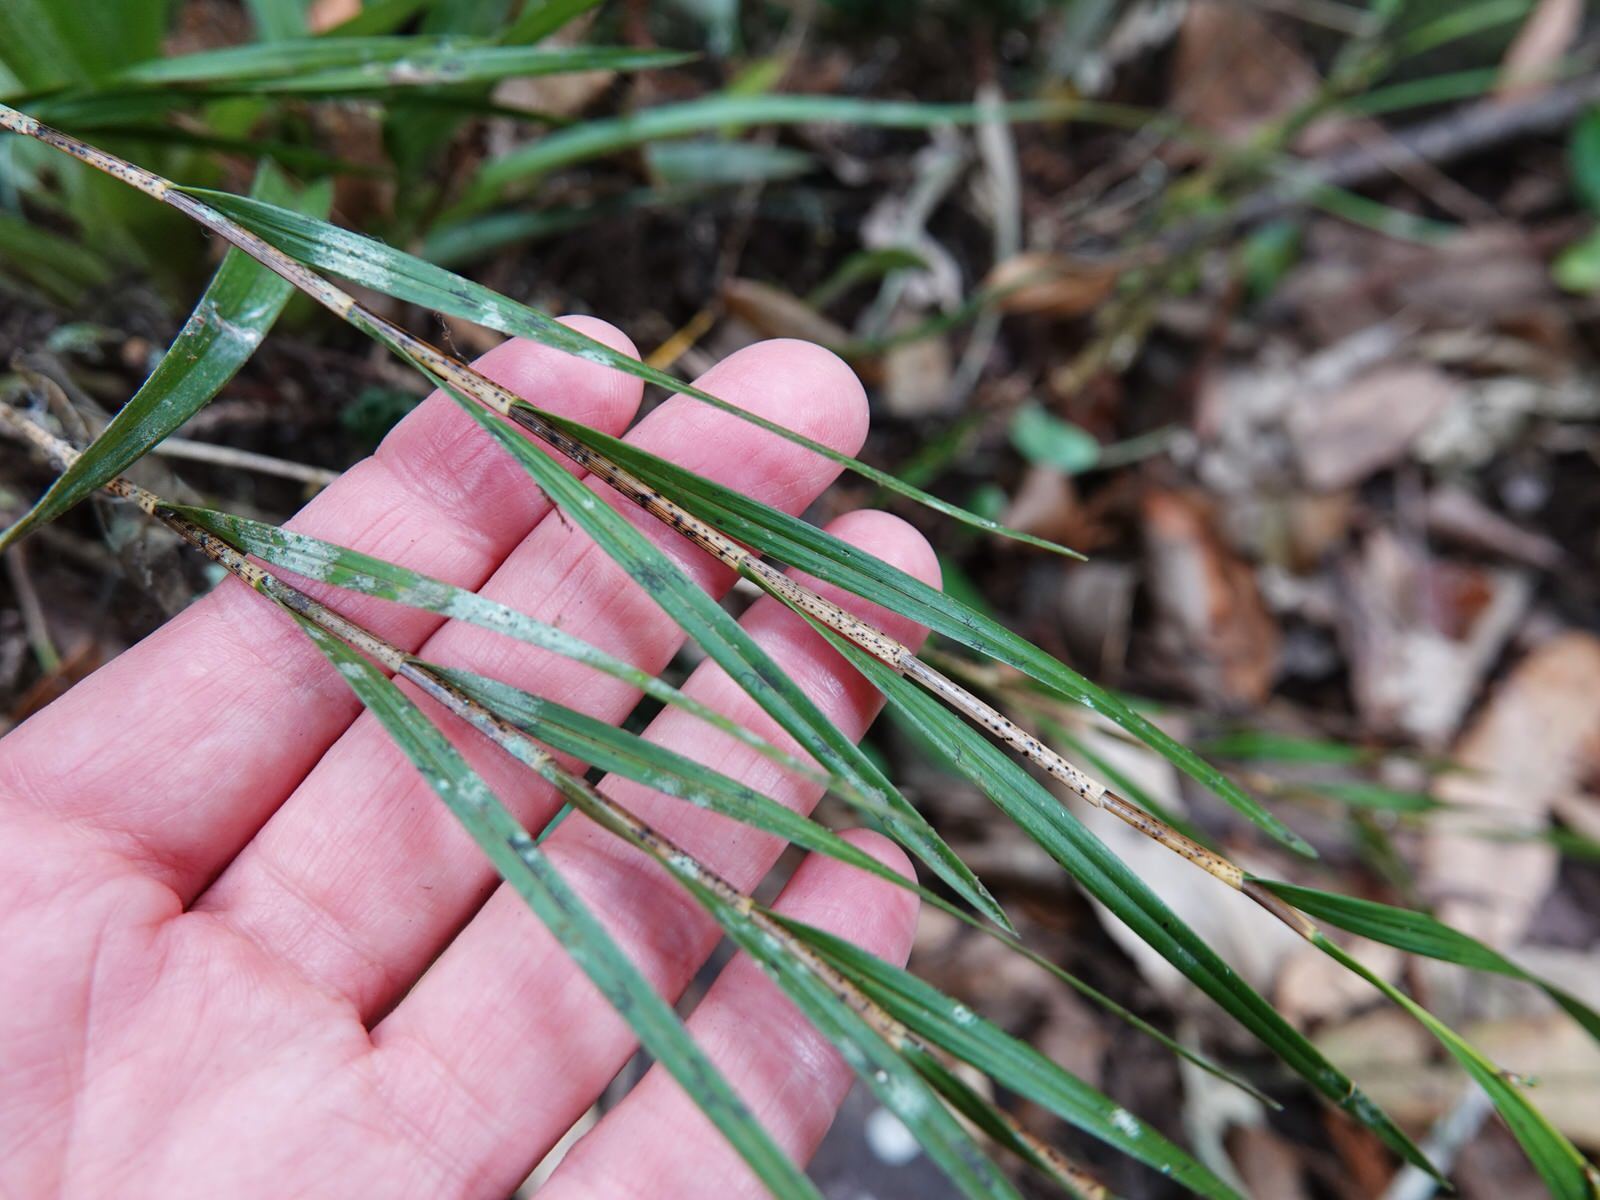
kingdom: Plantae
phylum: Tracheophyta
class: Liliopsida
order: Asparagales
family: Orchidaceae
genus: Earina
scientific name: Earina mucronata
